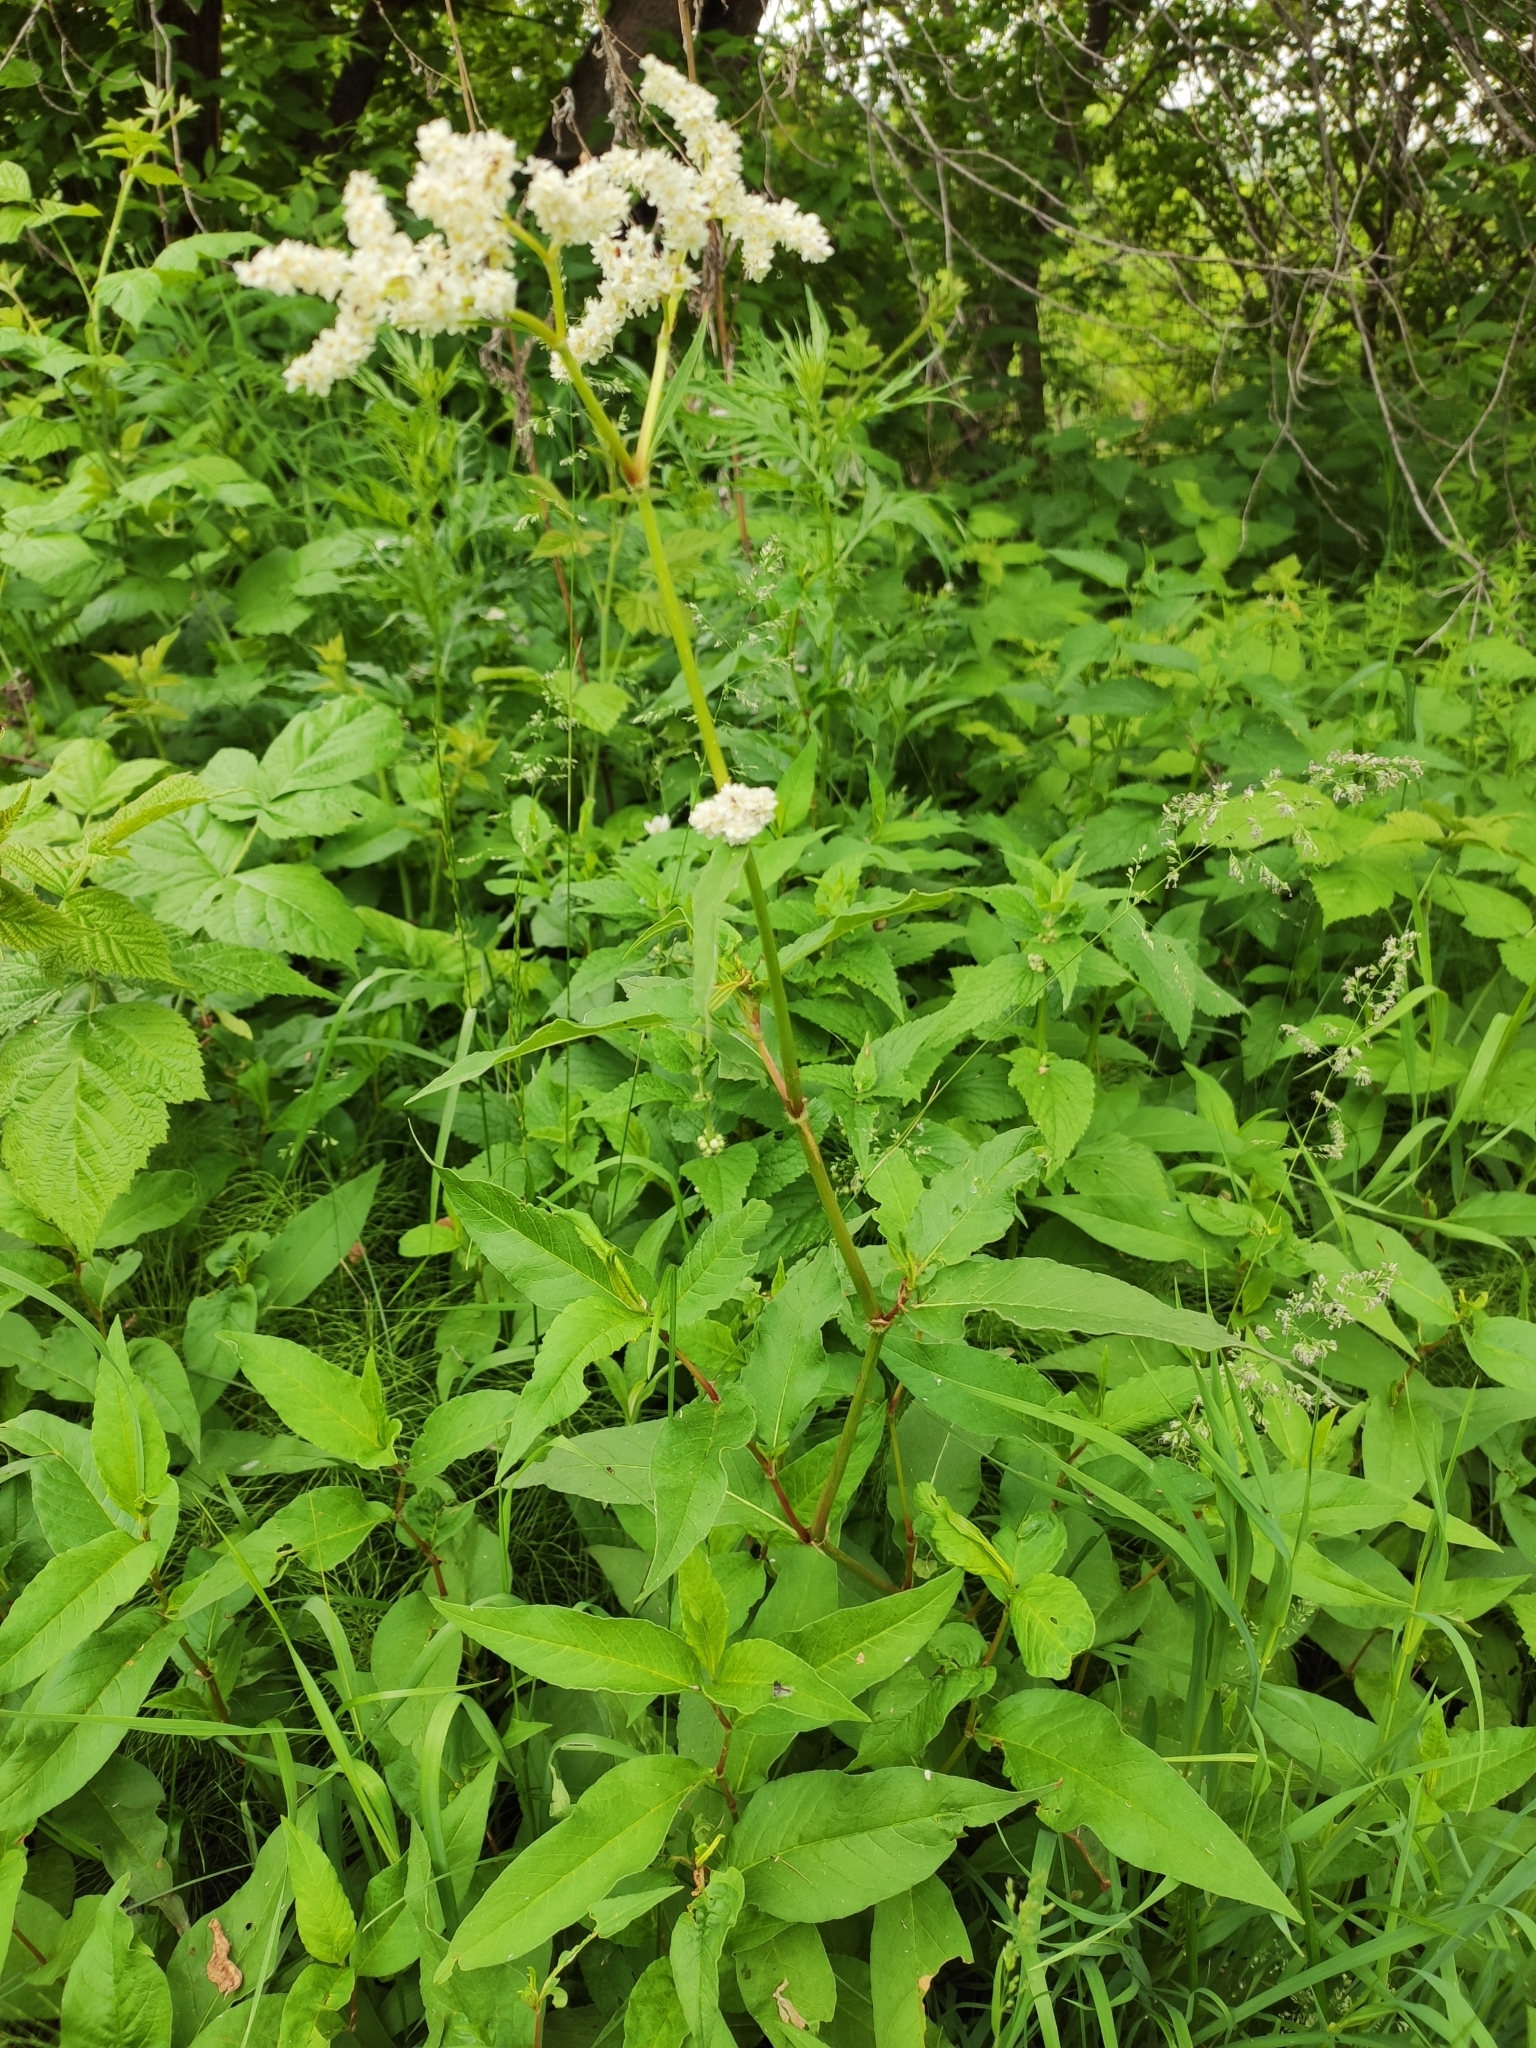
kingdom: Plantae
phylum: Tracheophyta
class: Magnoliopsida
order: Caryophyllales
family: Polygonaceae
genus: Koenigia
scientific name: Koenigia alpina
